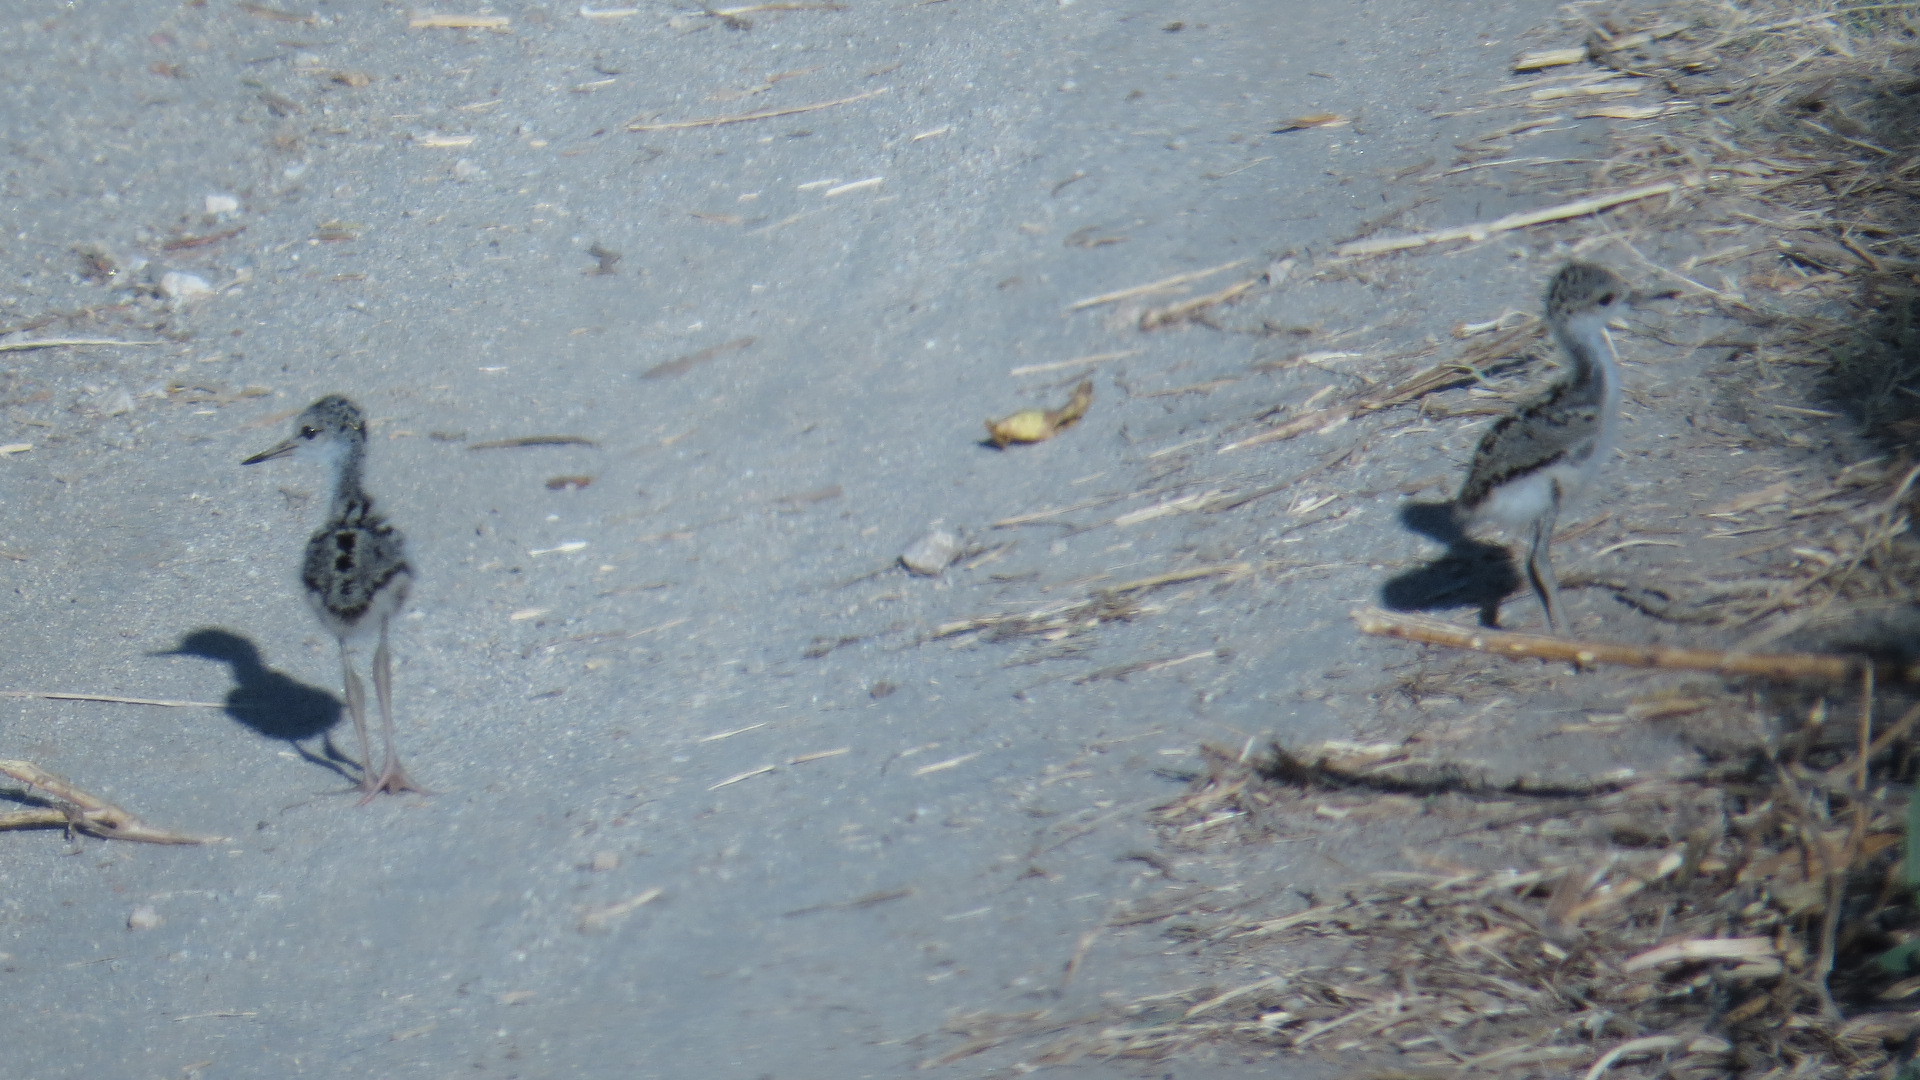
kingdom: Animalia
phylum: Chordata
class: Aves
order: Charadriiformes
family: Recurvirostridae
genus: Himantopus
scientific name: Himantopus mexicanus
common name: Black-necked stilt
